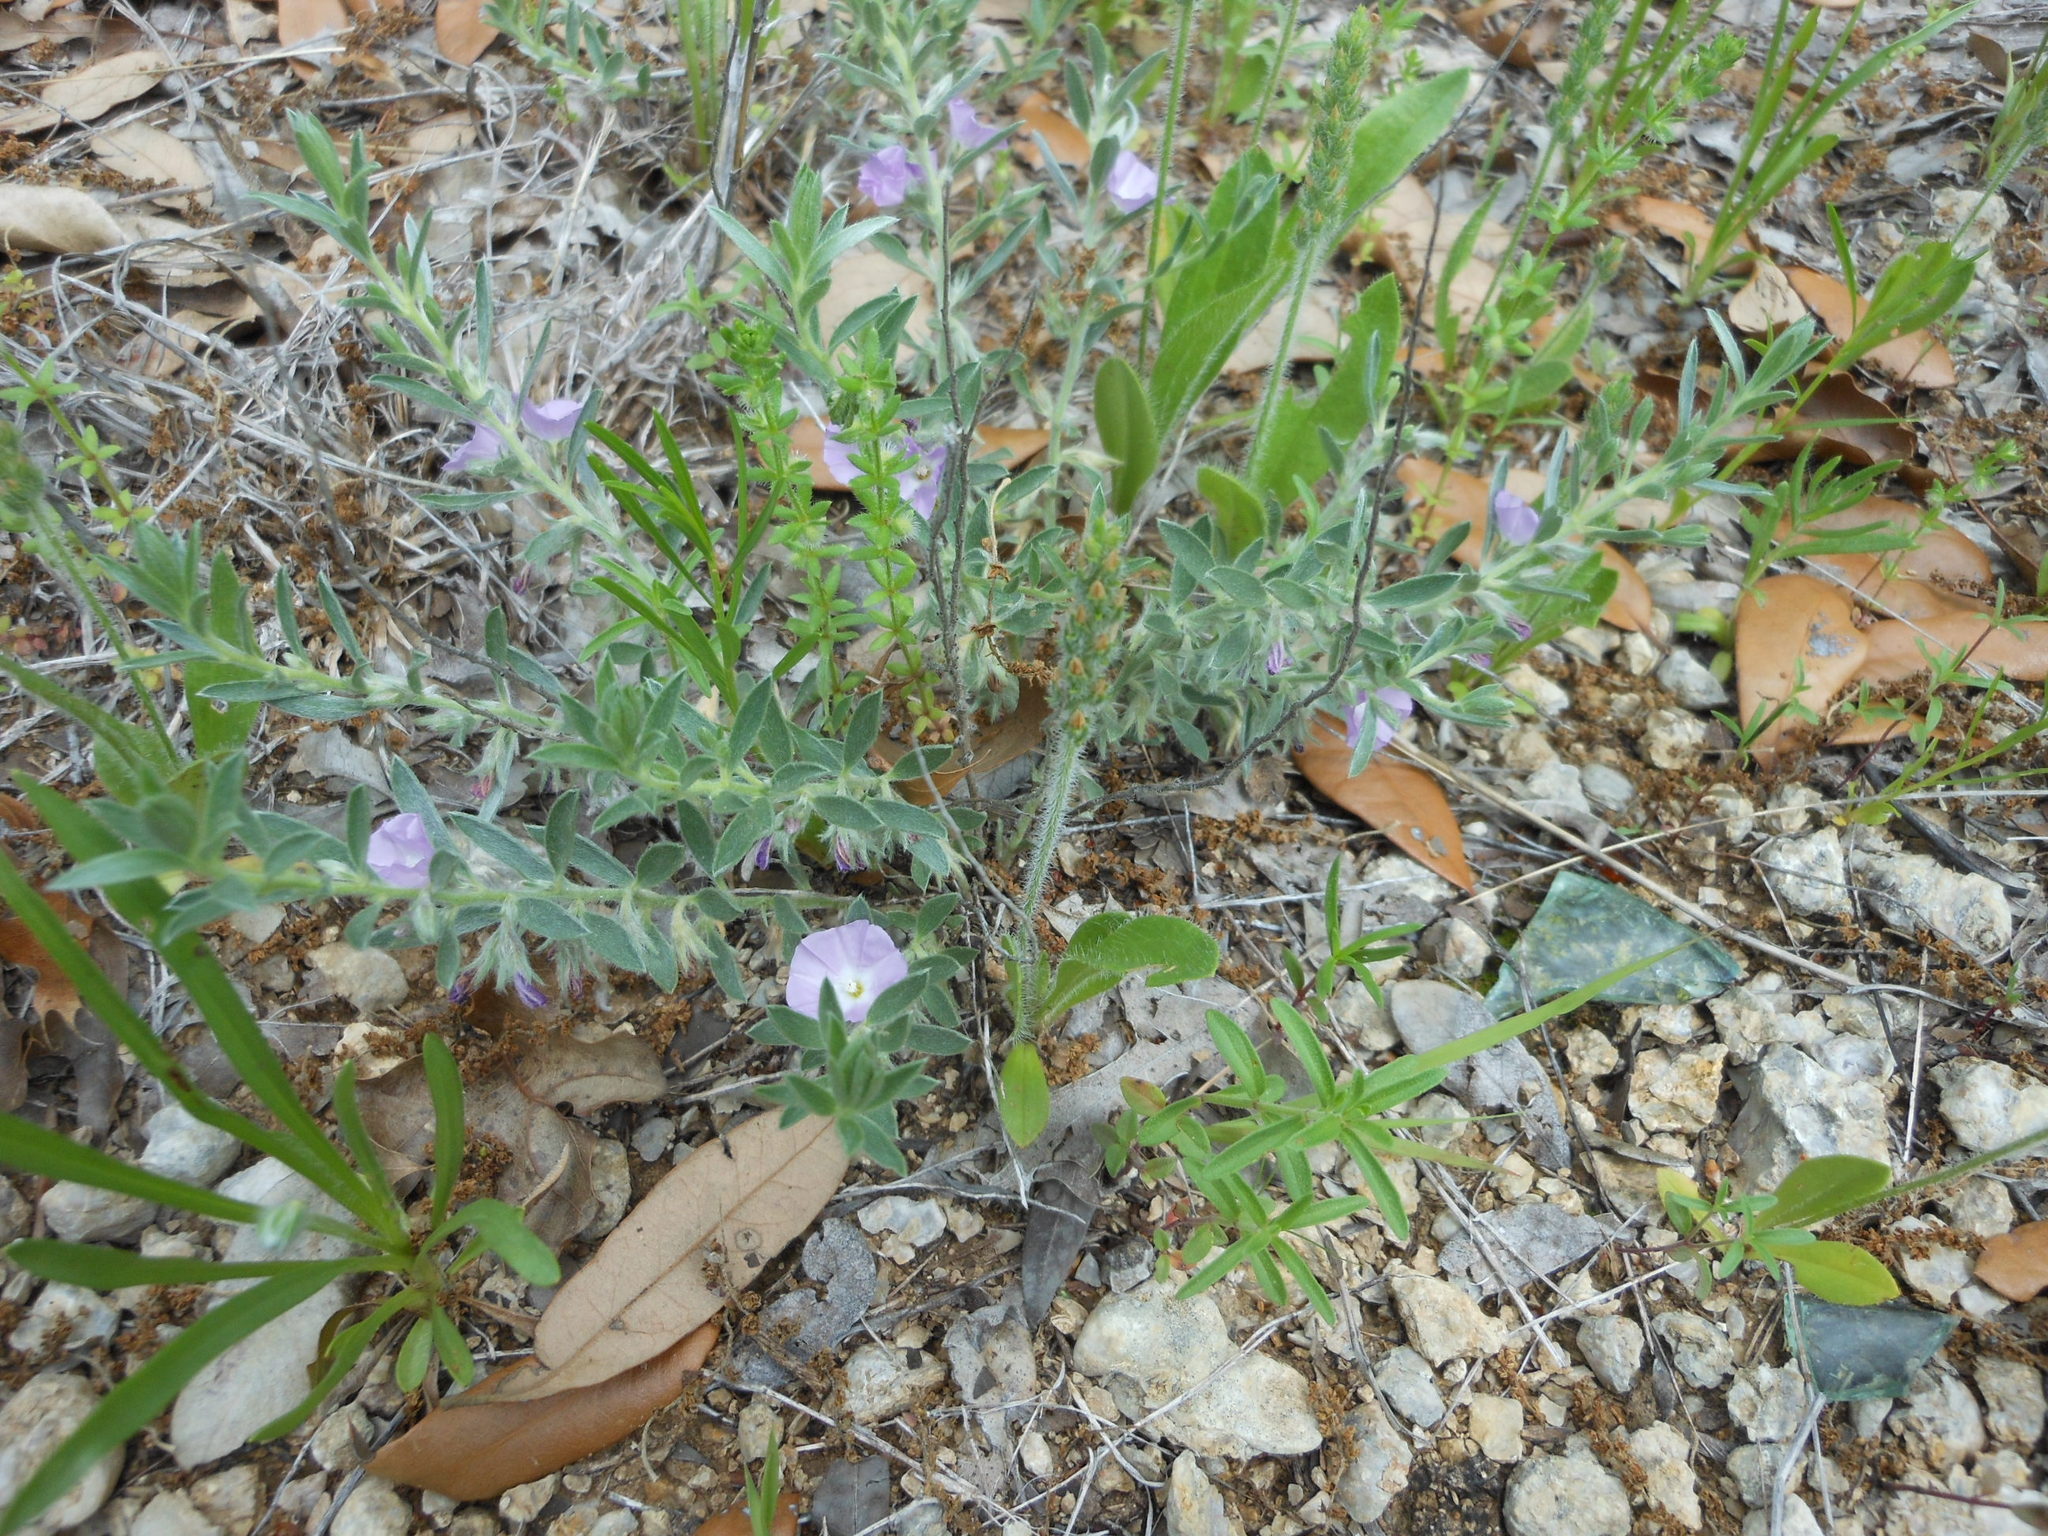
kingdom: Plantae
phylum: Tracheophyta
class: Magnoliopsida
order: Solanales
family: Convolvulaceae
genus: Evolvulus
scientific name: Evolvulus nuttallianus
